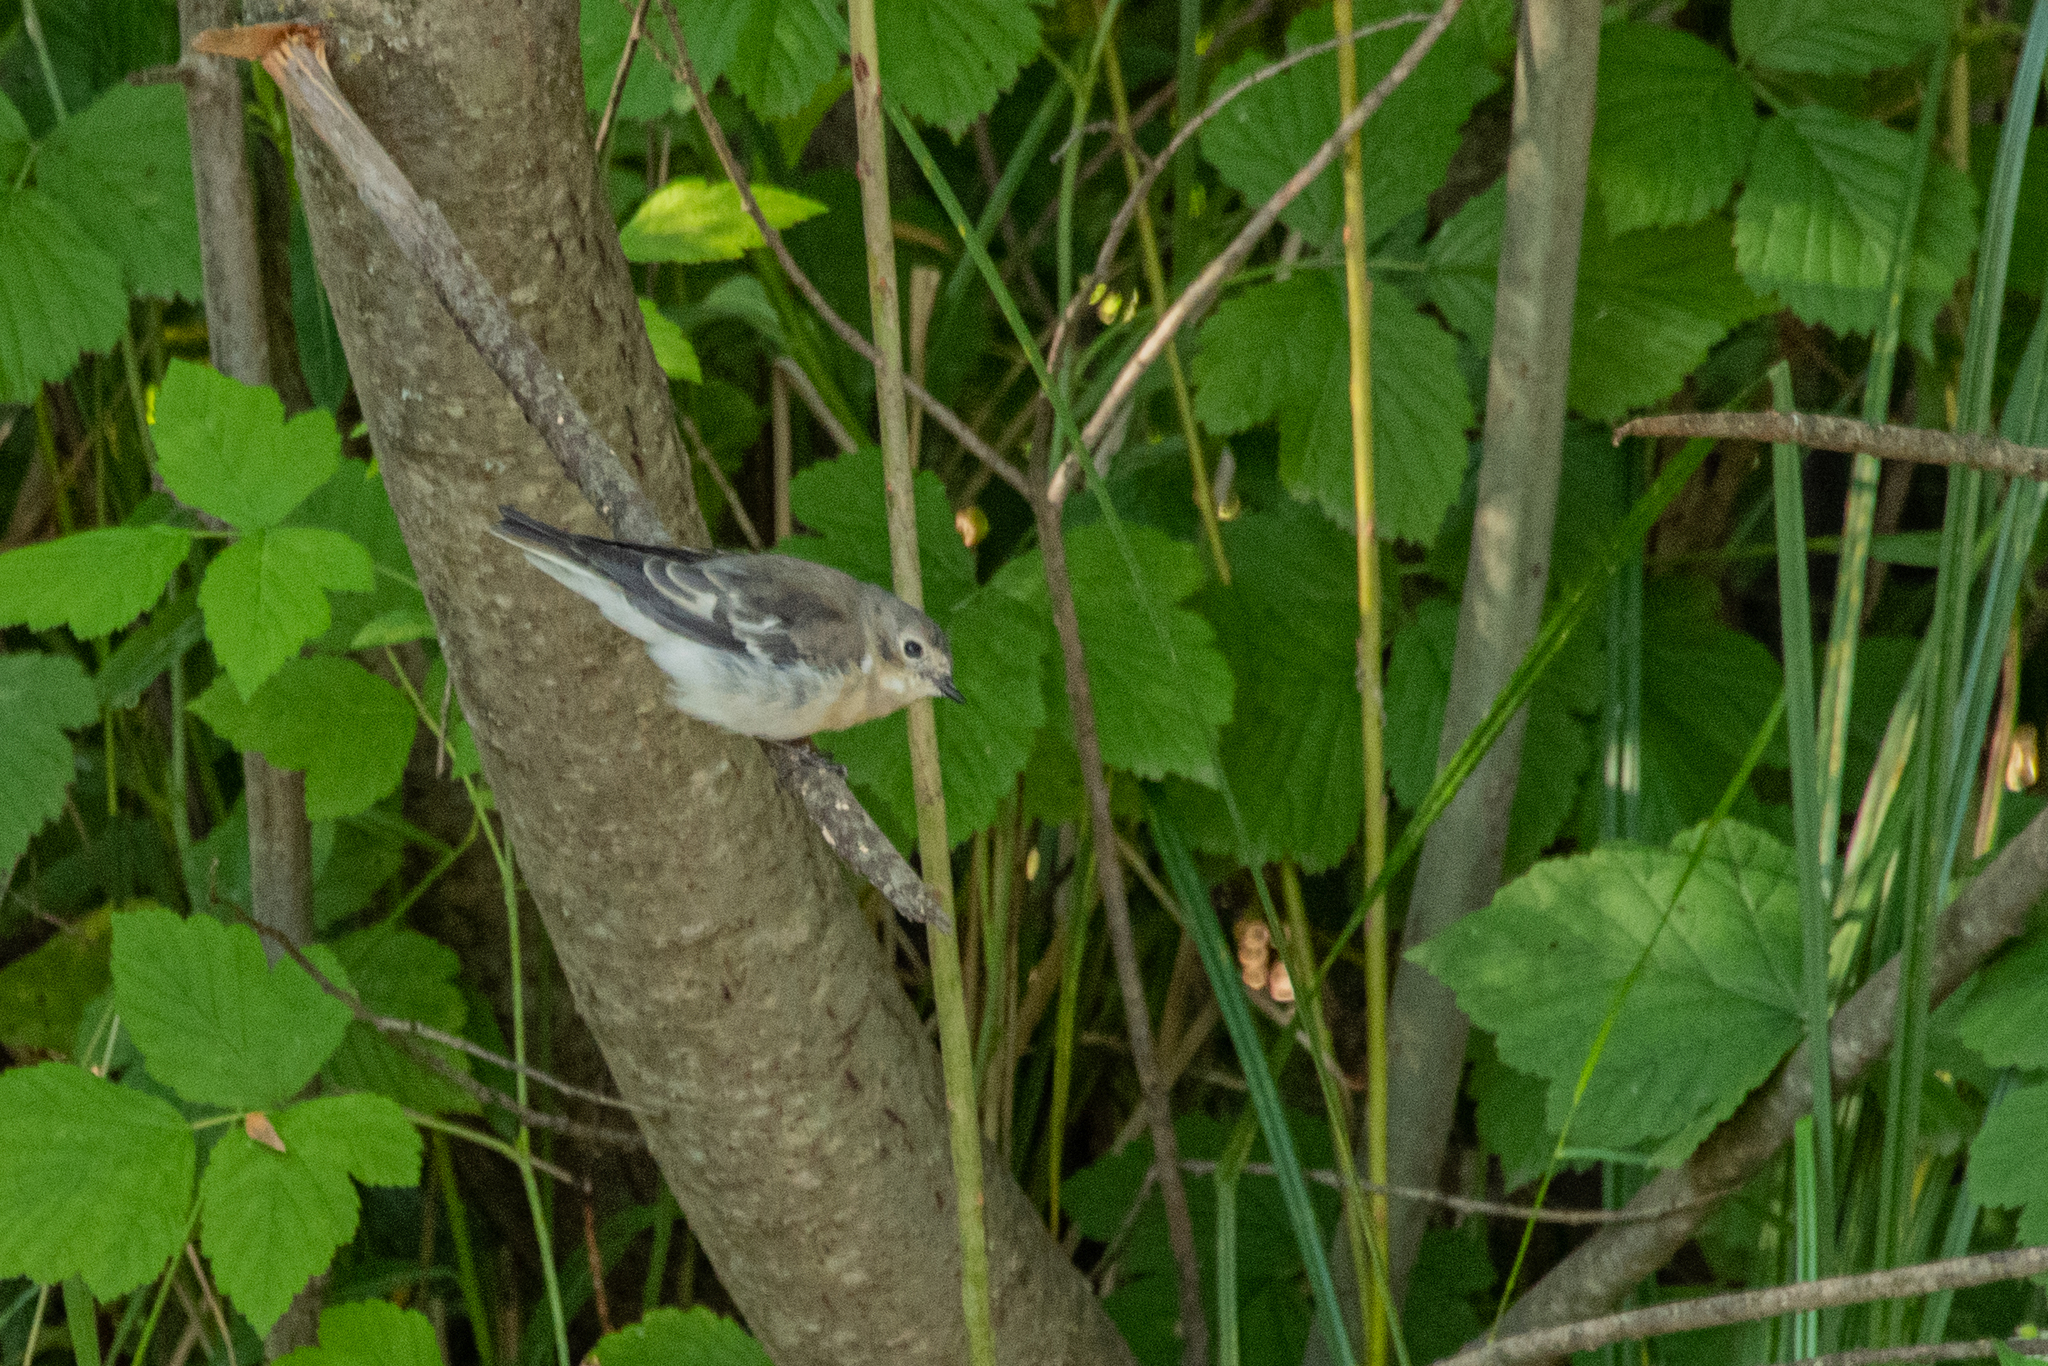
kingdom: Animalia
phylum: Chordata
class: Aves
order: Passeriformes
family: Muscicapidae
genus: Ficedula
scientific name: Ficedula semitorquata
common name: Semicollared flycatcher
